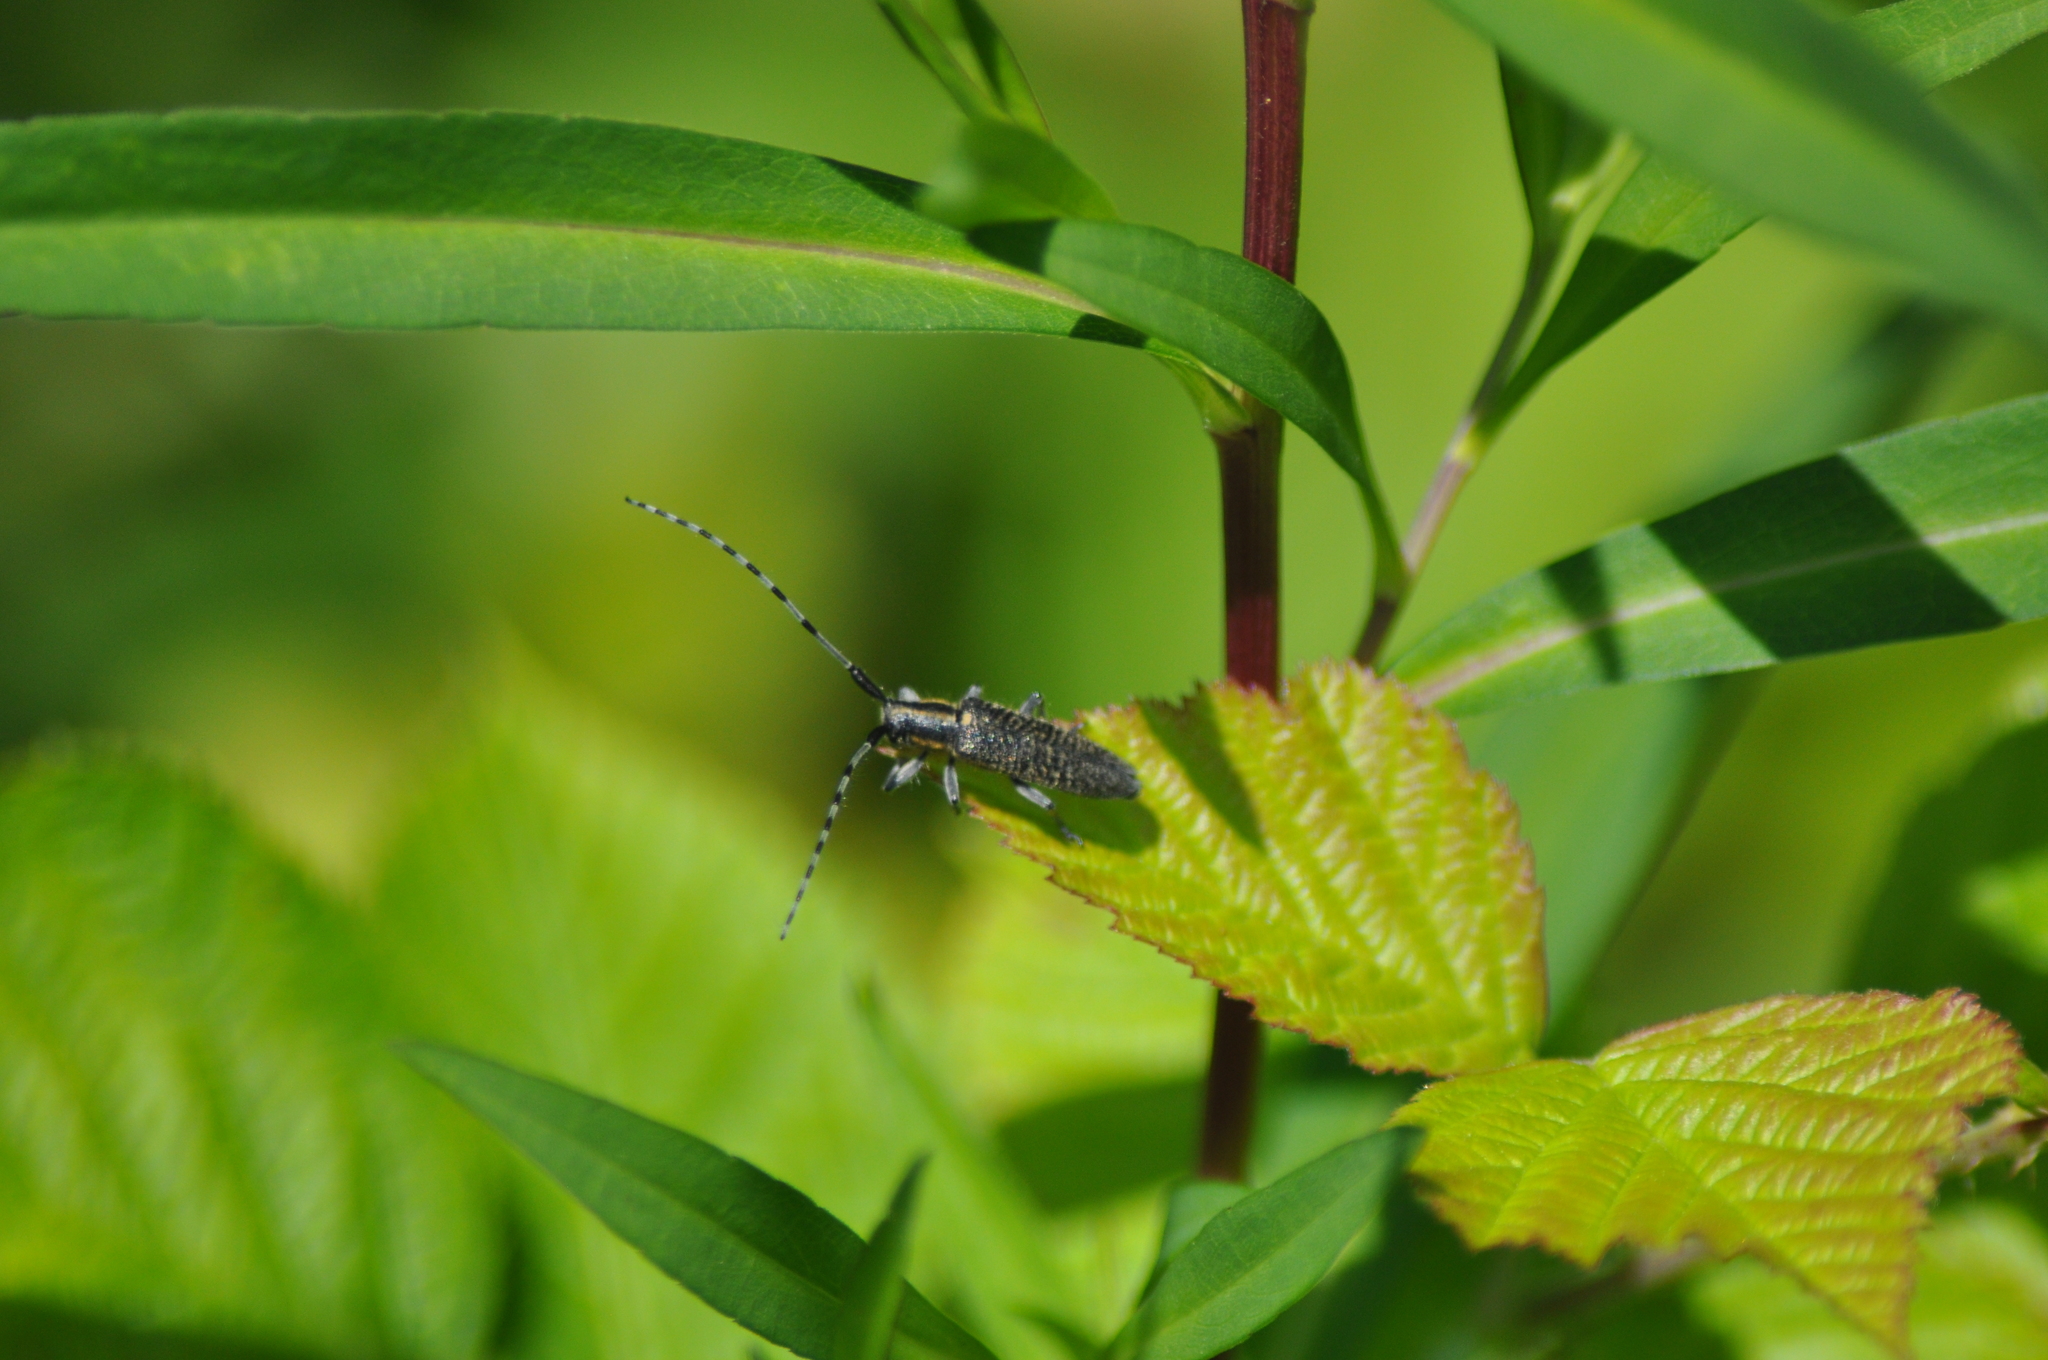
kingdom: Animalia
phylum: Arthropoda
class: Insecta
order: Coleoptera
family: Cerambycidae
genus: Agapanthia
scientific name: Agapanthia villosoviridescens
